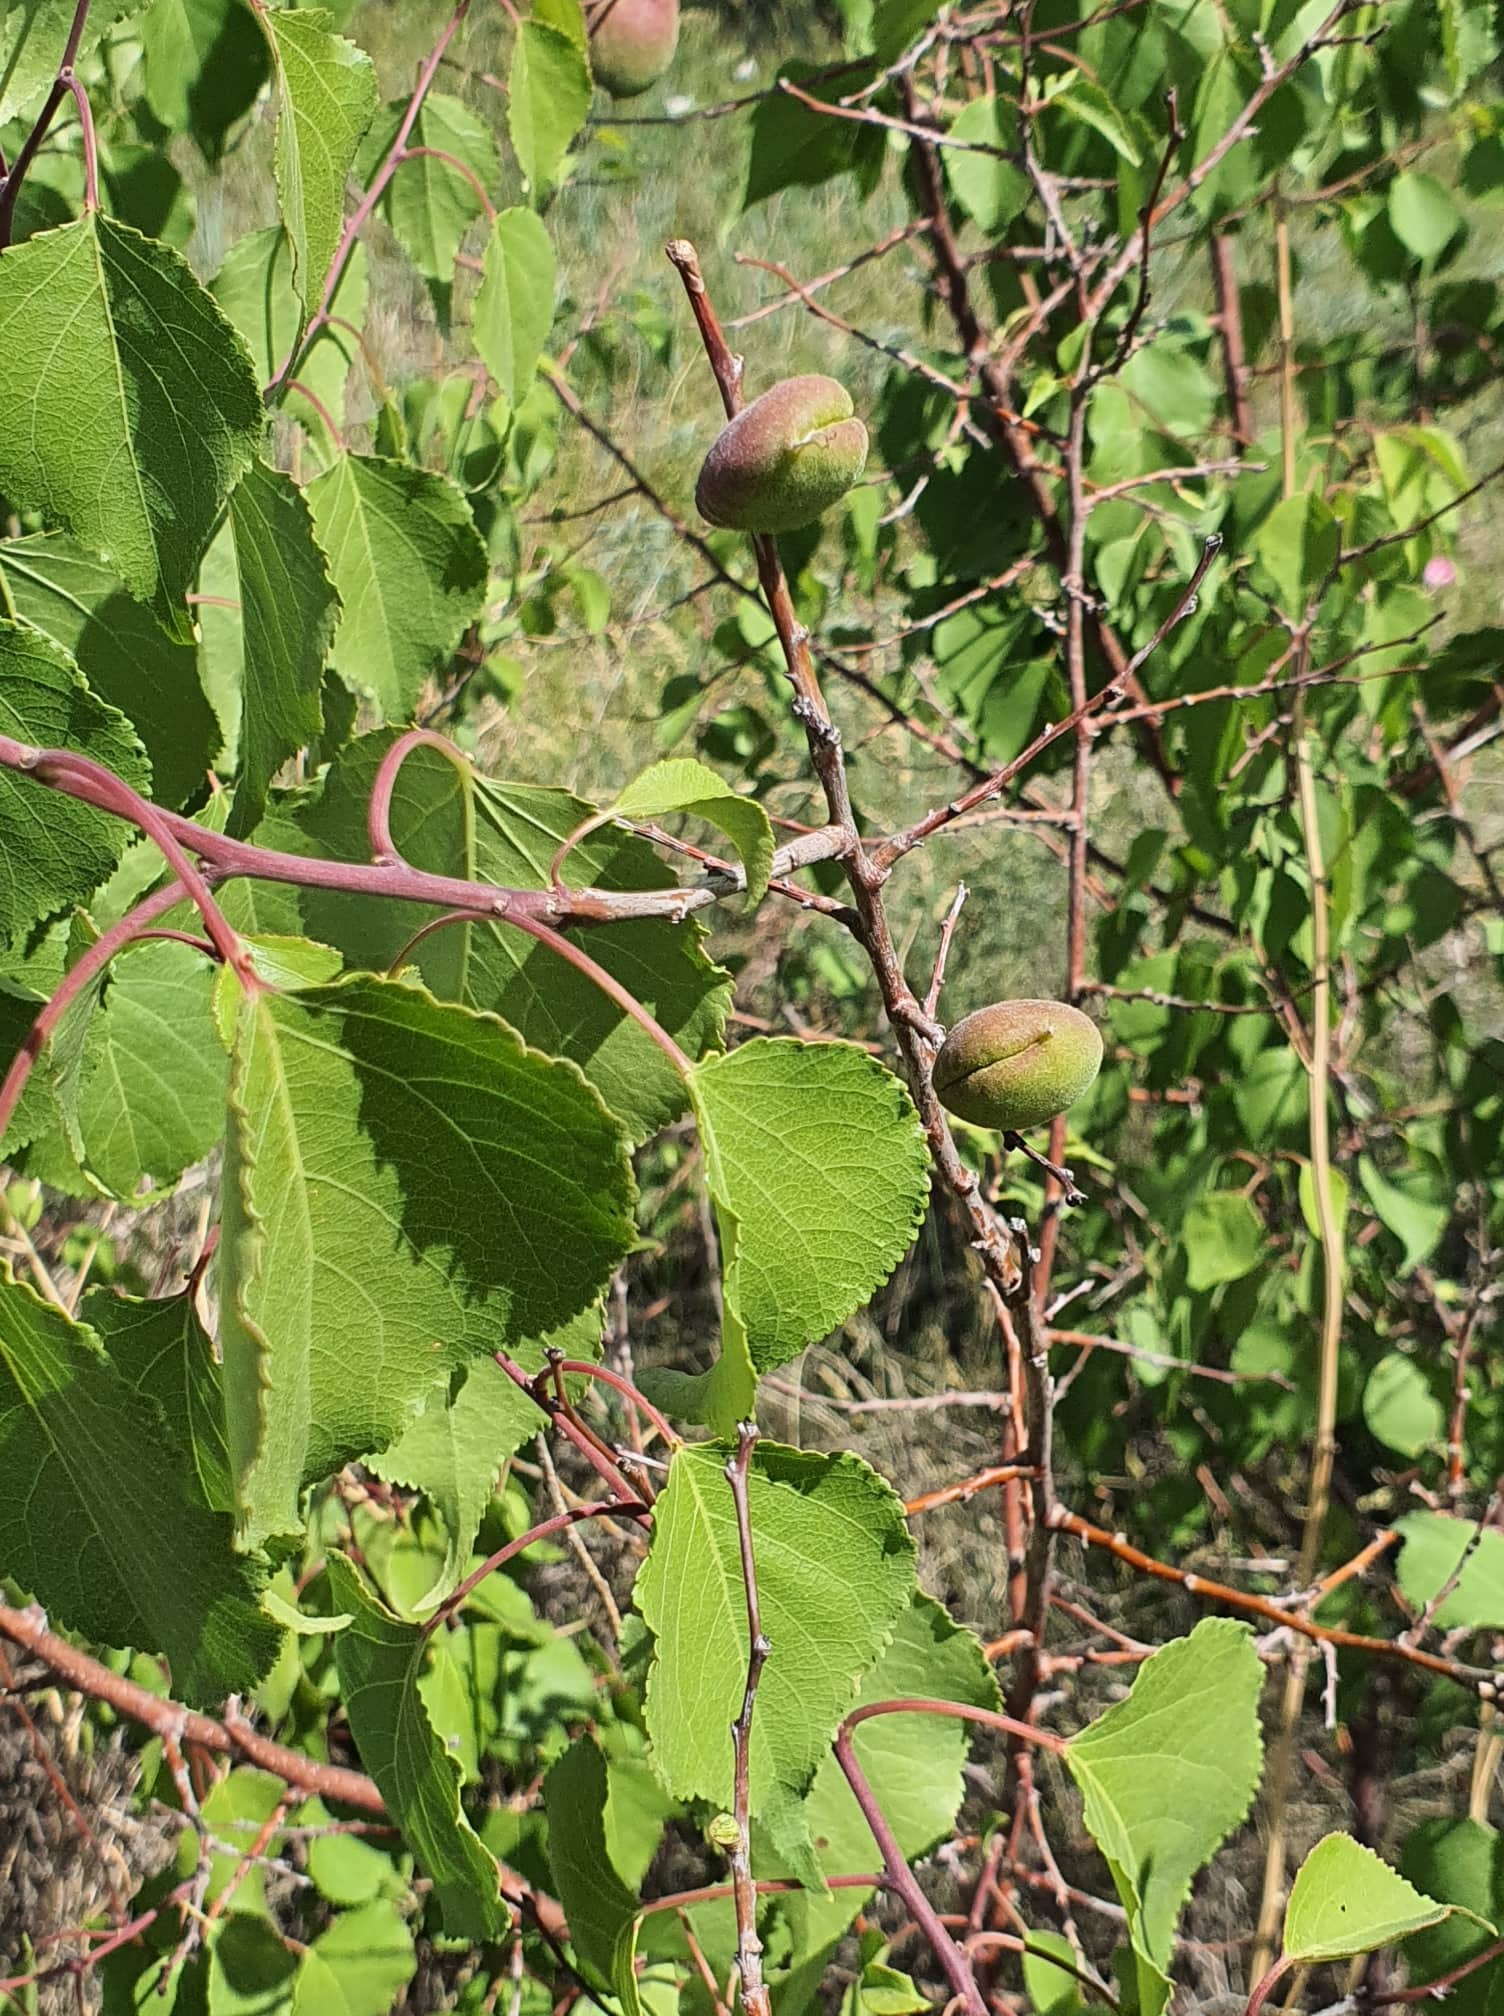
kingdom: Plantae
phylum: Tracheophyta
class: Magnoliopsida
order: Rosales
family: Rosaceae
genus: Prunus
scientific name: Prunus sibirica
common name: Siberian apricot
